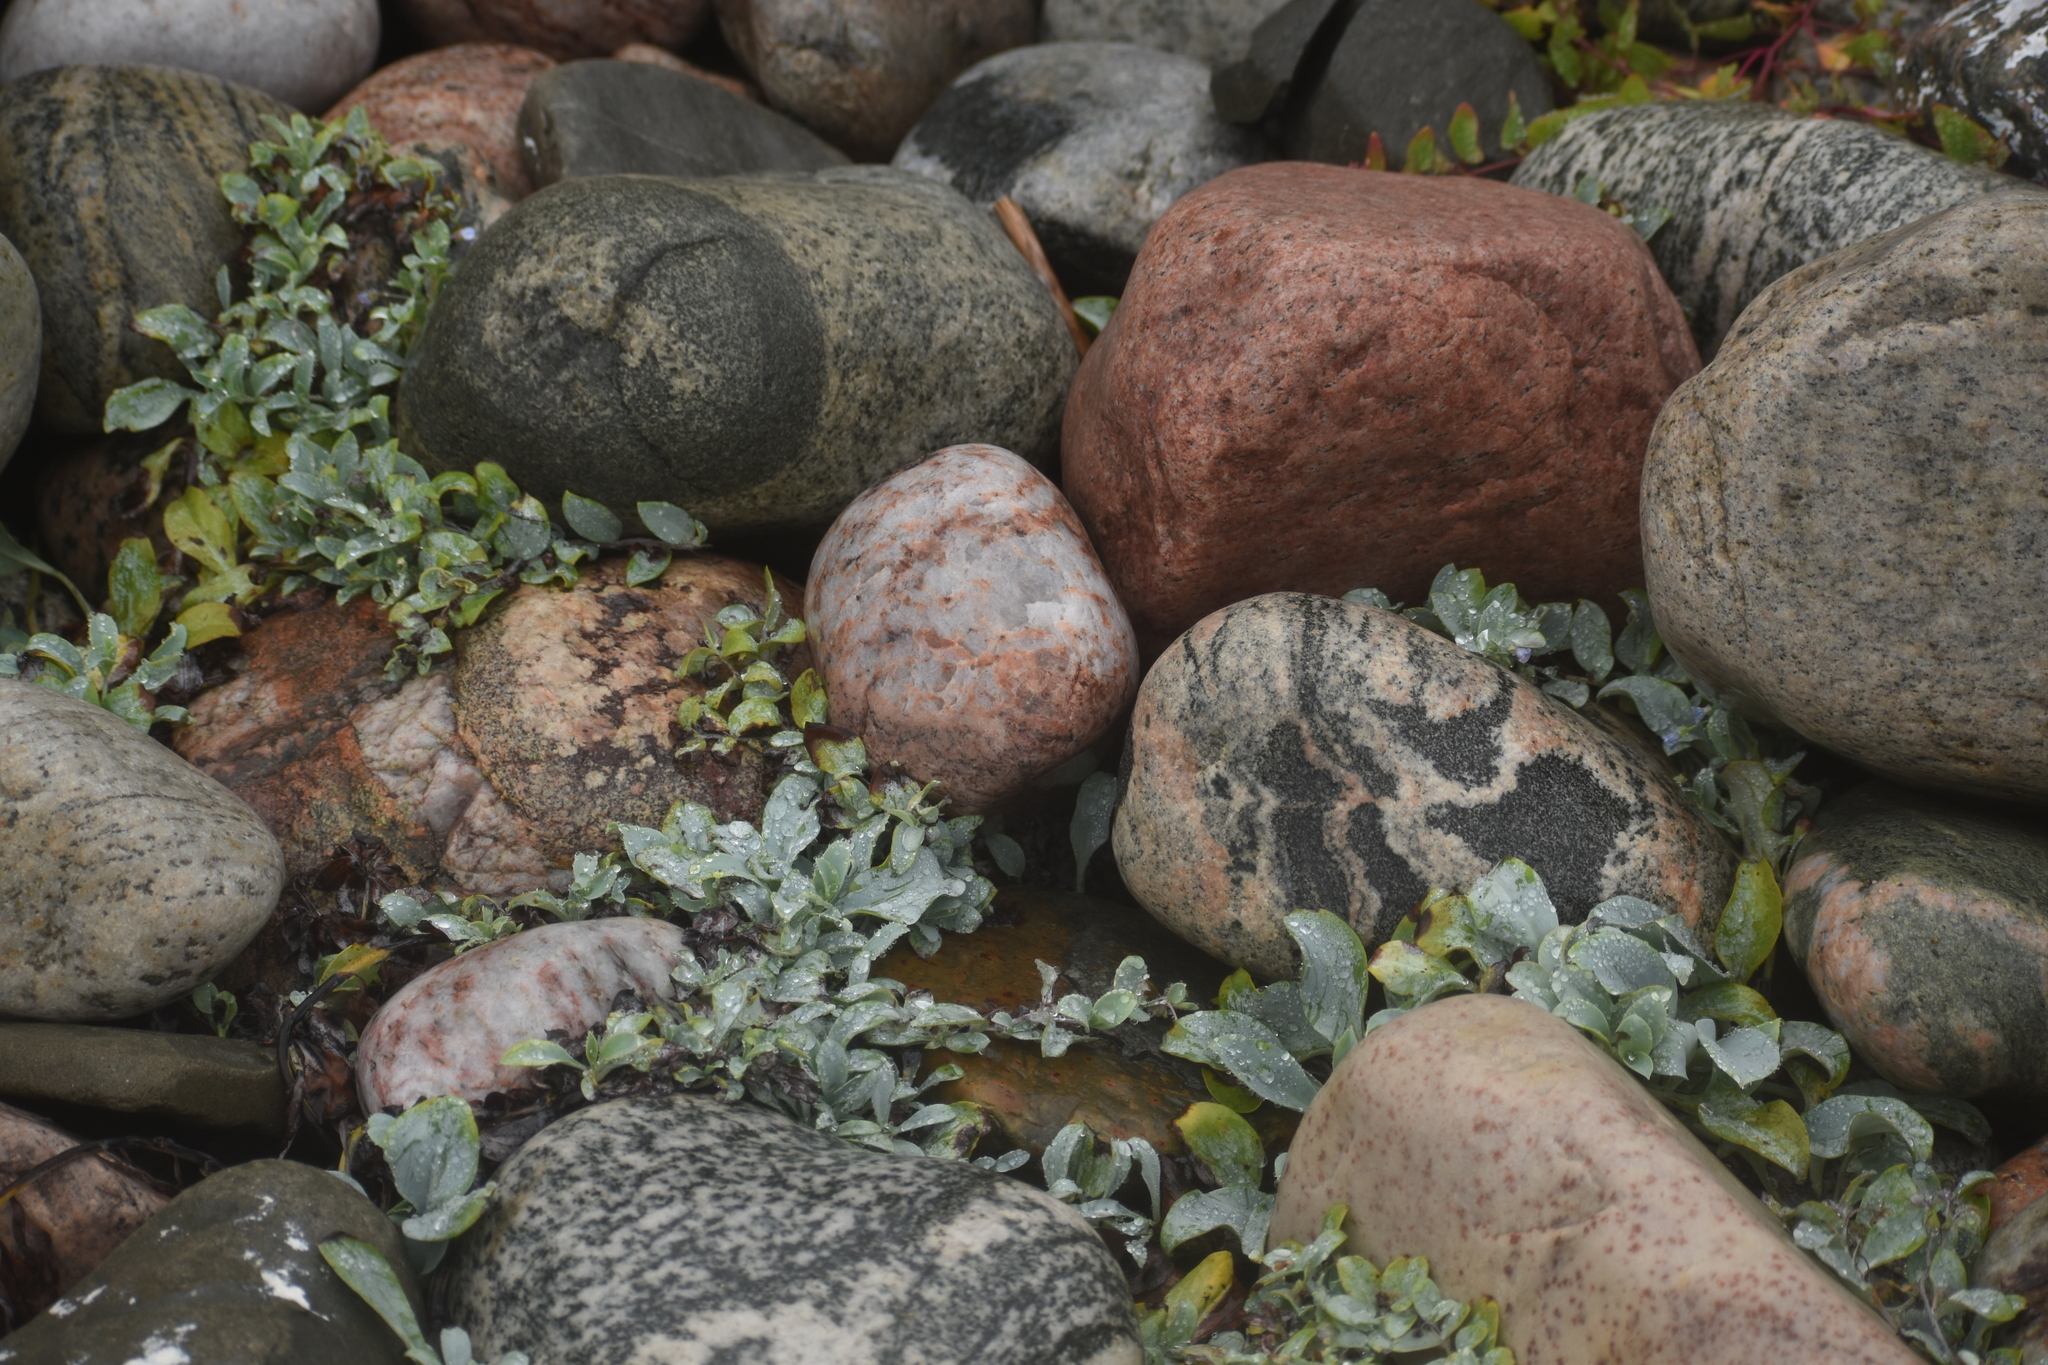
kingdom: Plantae
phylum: Tracheophyta
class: Magnoliopsida
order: Boraginales
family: Boraginaceae
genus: Mertensia
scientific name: Mertensia maritima
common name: Oysterplant
